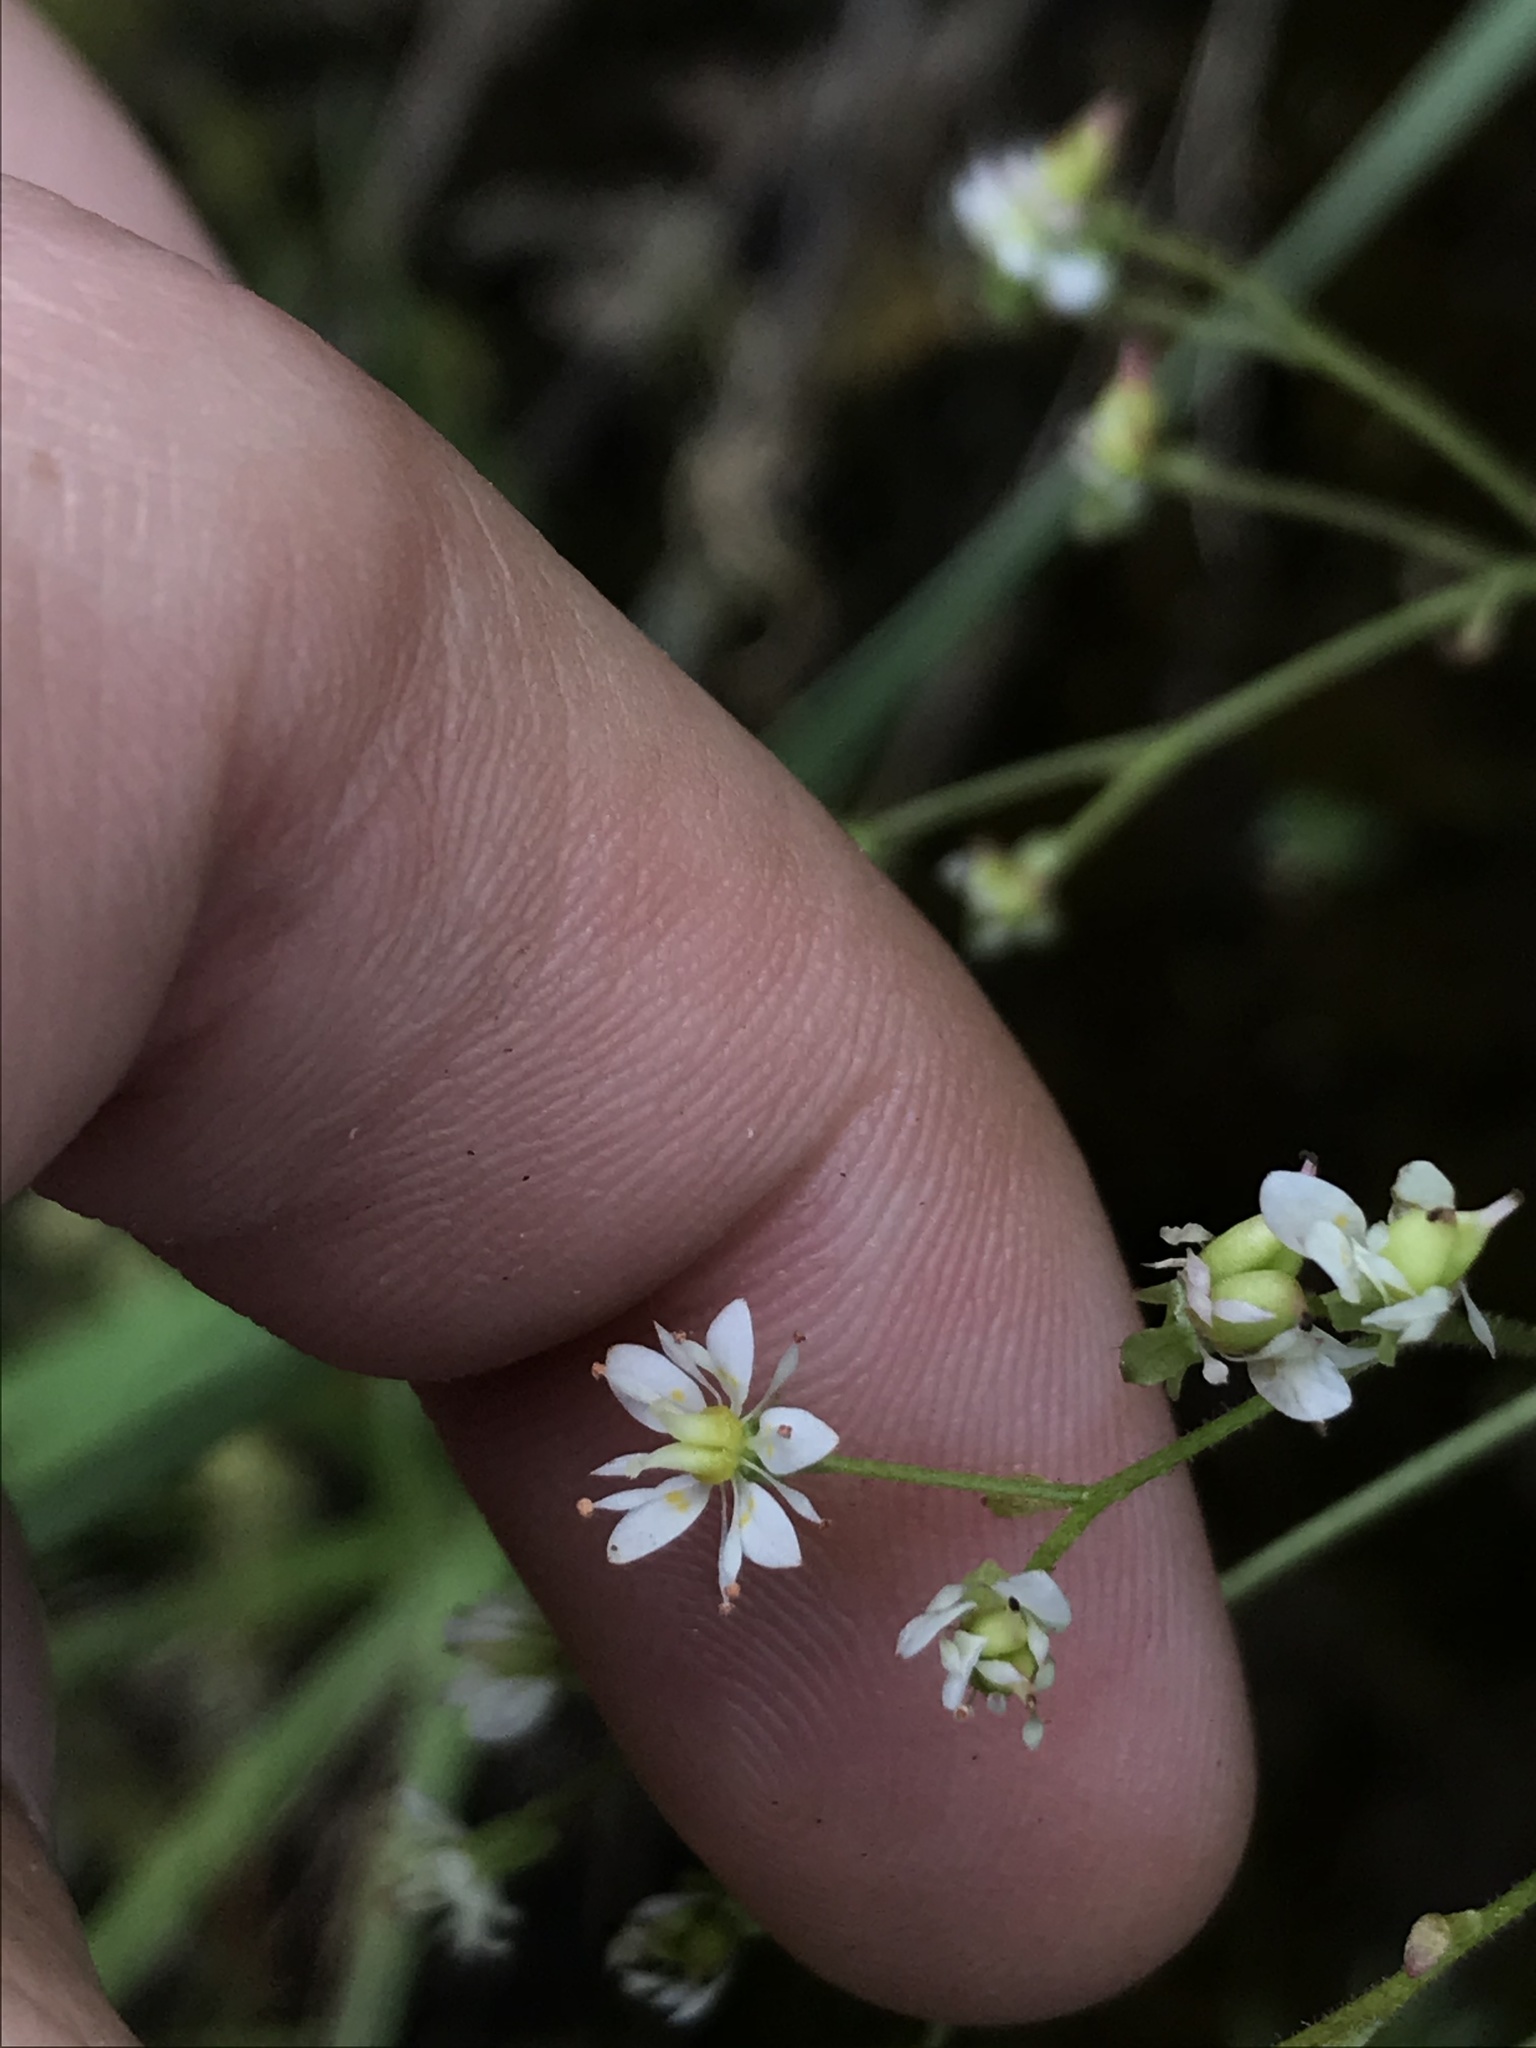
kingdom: Plantae
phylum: Tracheophyta
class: Magnoliopsida
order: Saxifragales
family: Saxifragaceae
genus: Micranthes
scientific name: Micranthes marshallii
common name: Marshall's saxifrage
